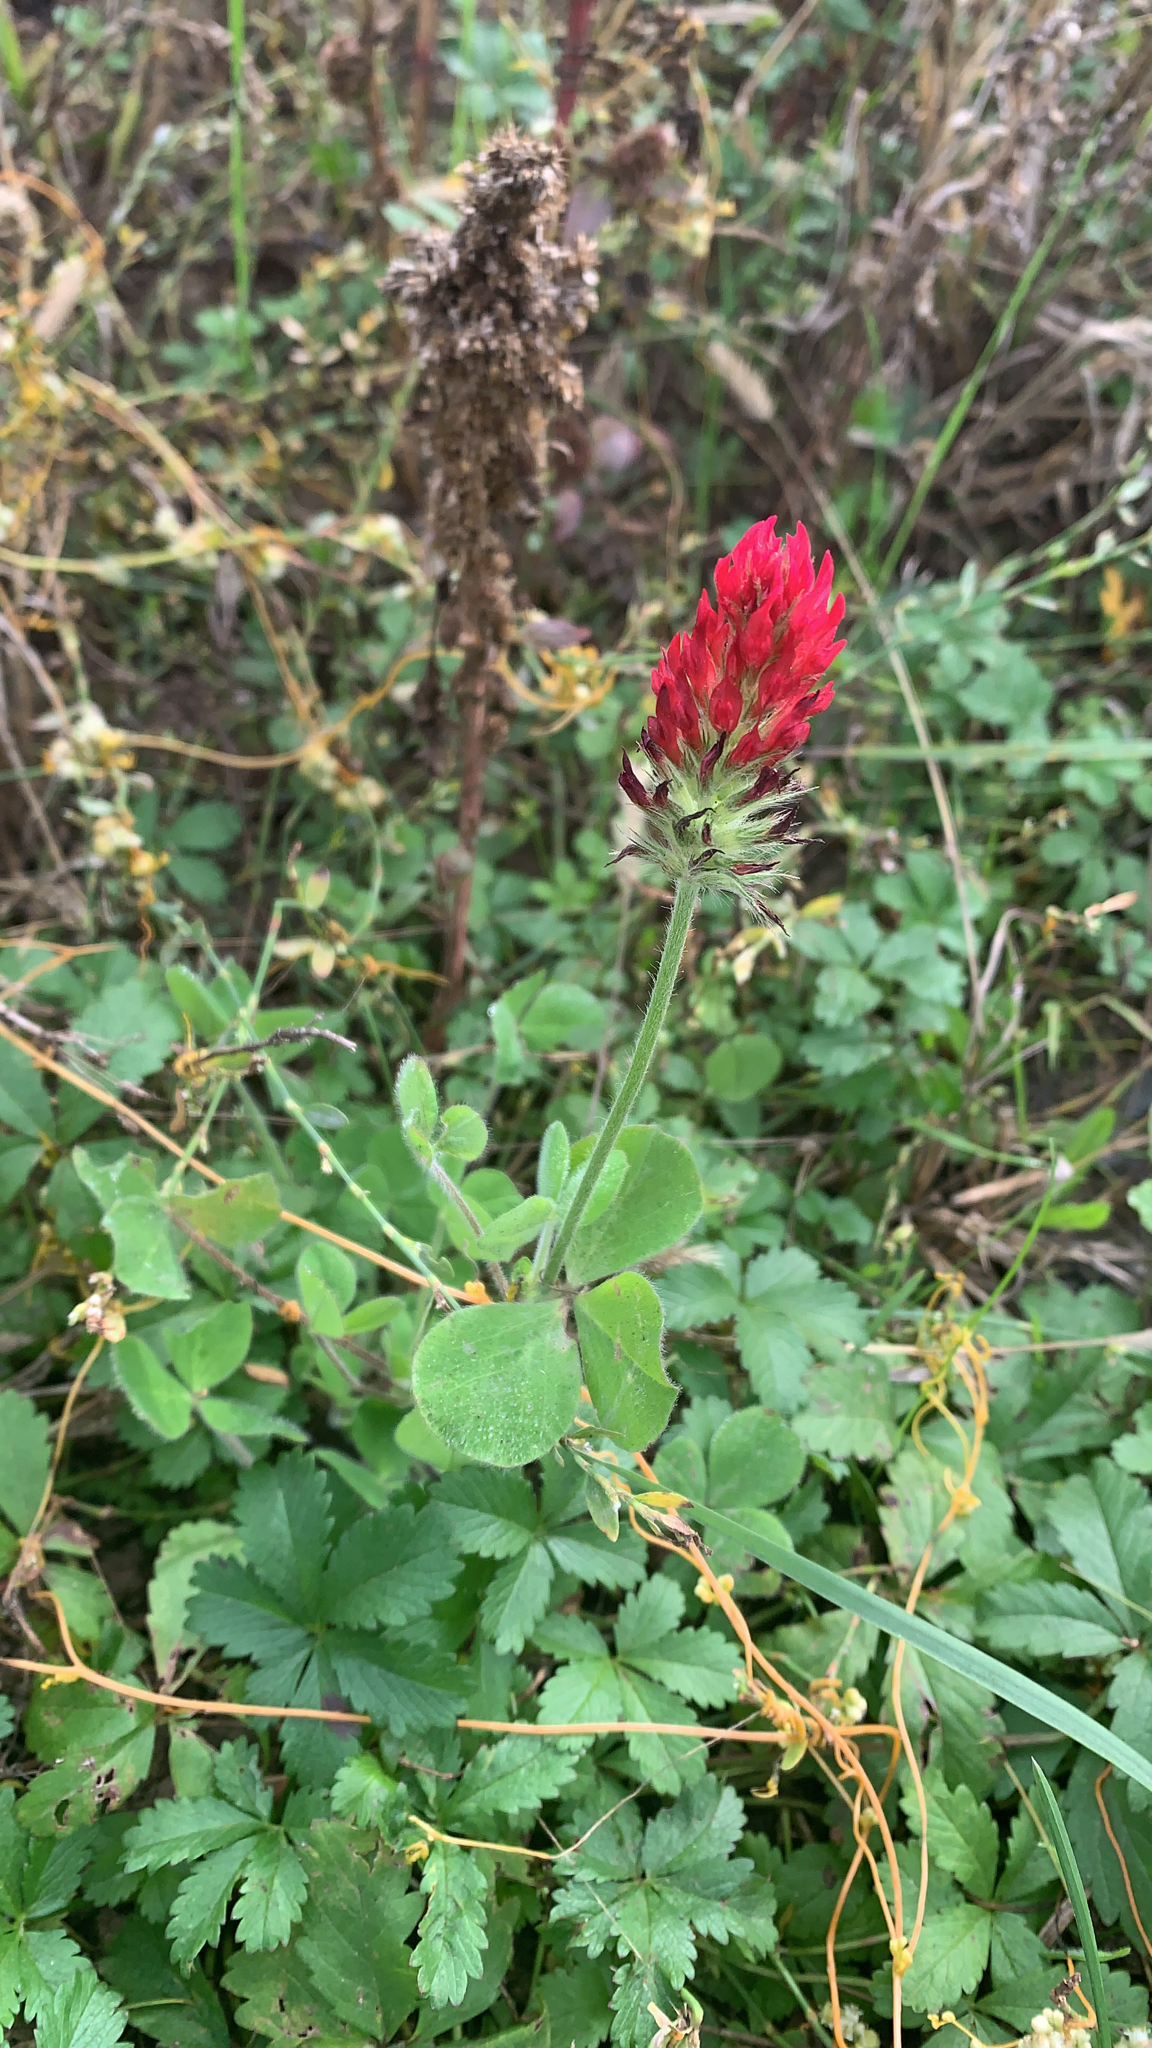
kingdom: Plantae
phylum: Tracheophyta
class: Magnoliopsida
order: Fabales
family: Fabaceae
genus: Trifolium
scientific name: Trifolium incarnatum
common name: Crimson clover
